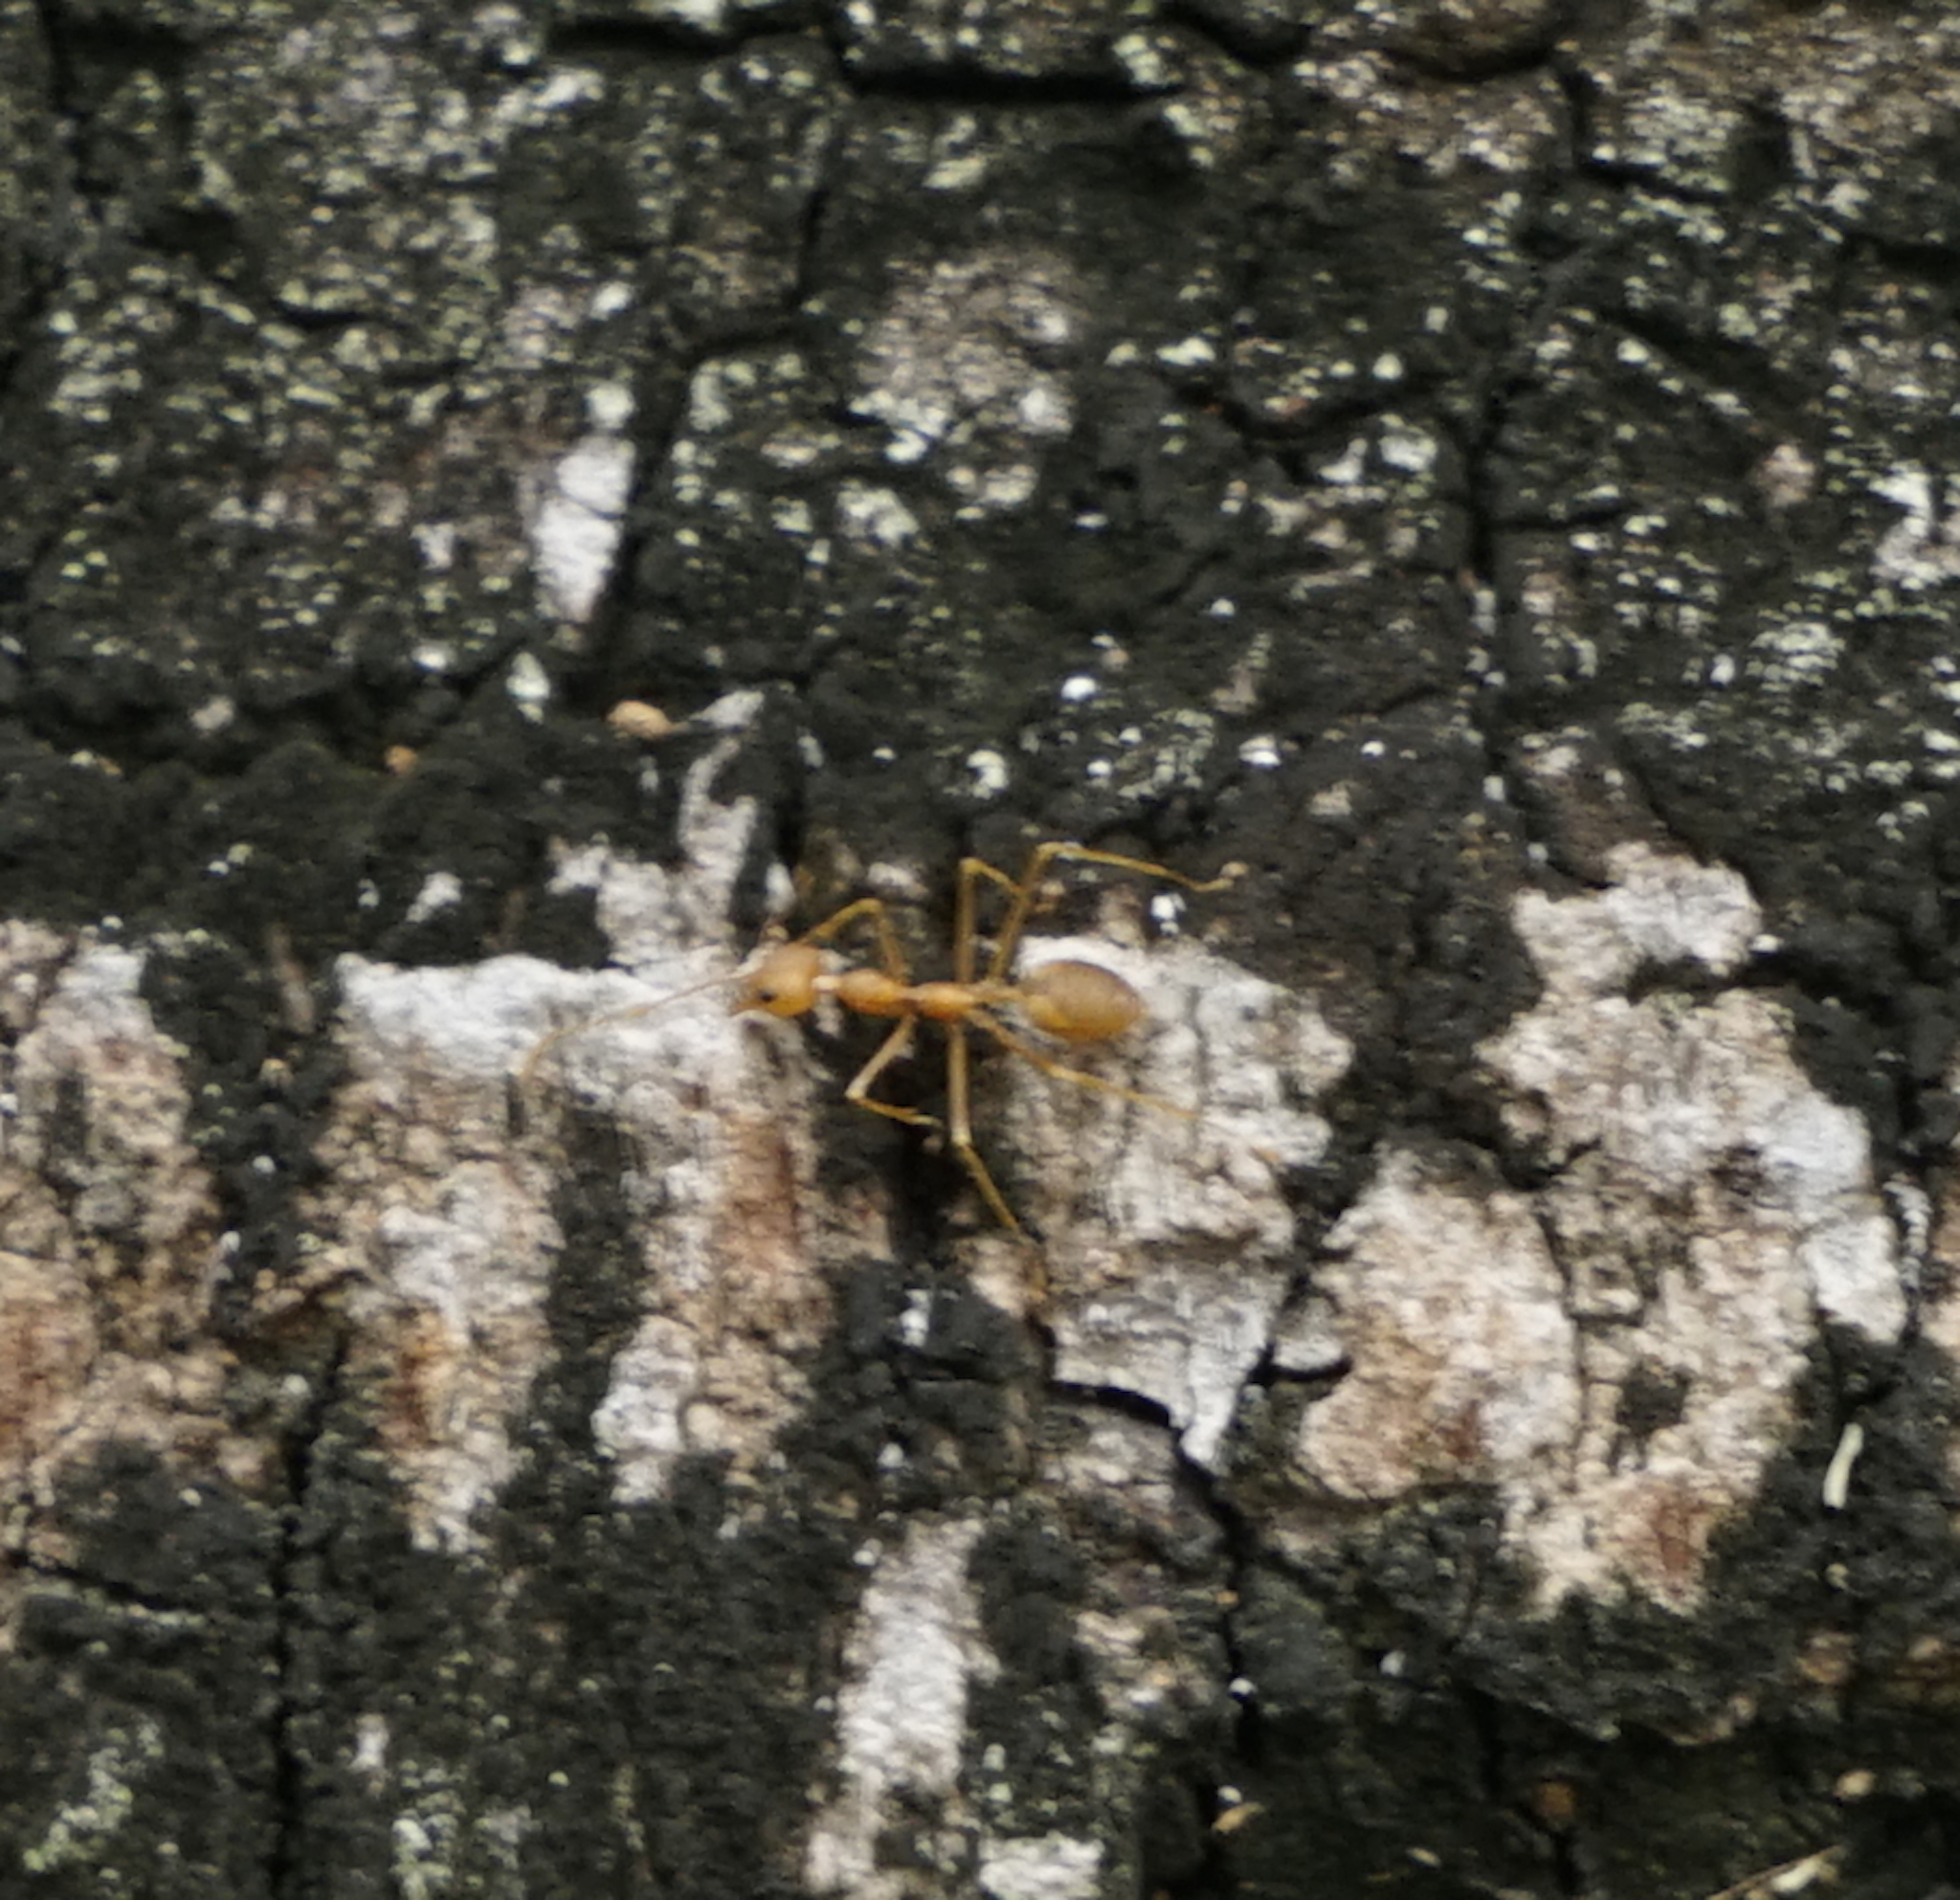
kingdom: Animalia
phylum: Arthropoda
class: Insecta
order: Hymenoptera
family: Formicidae
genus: Oecophylla
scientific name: Oecophylla smaragdina
